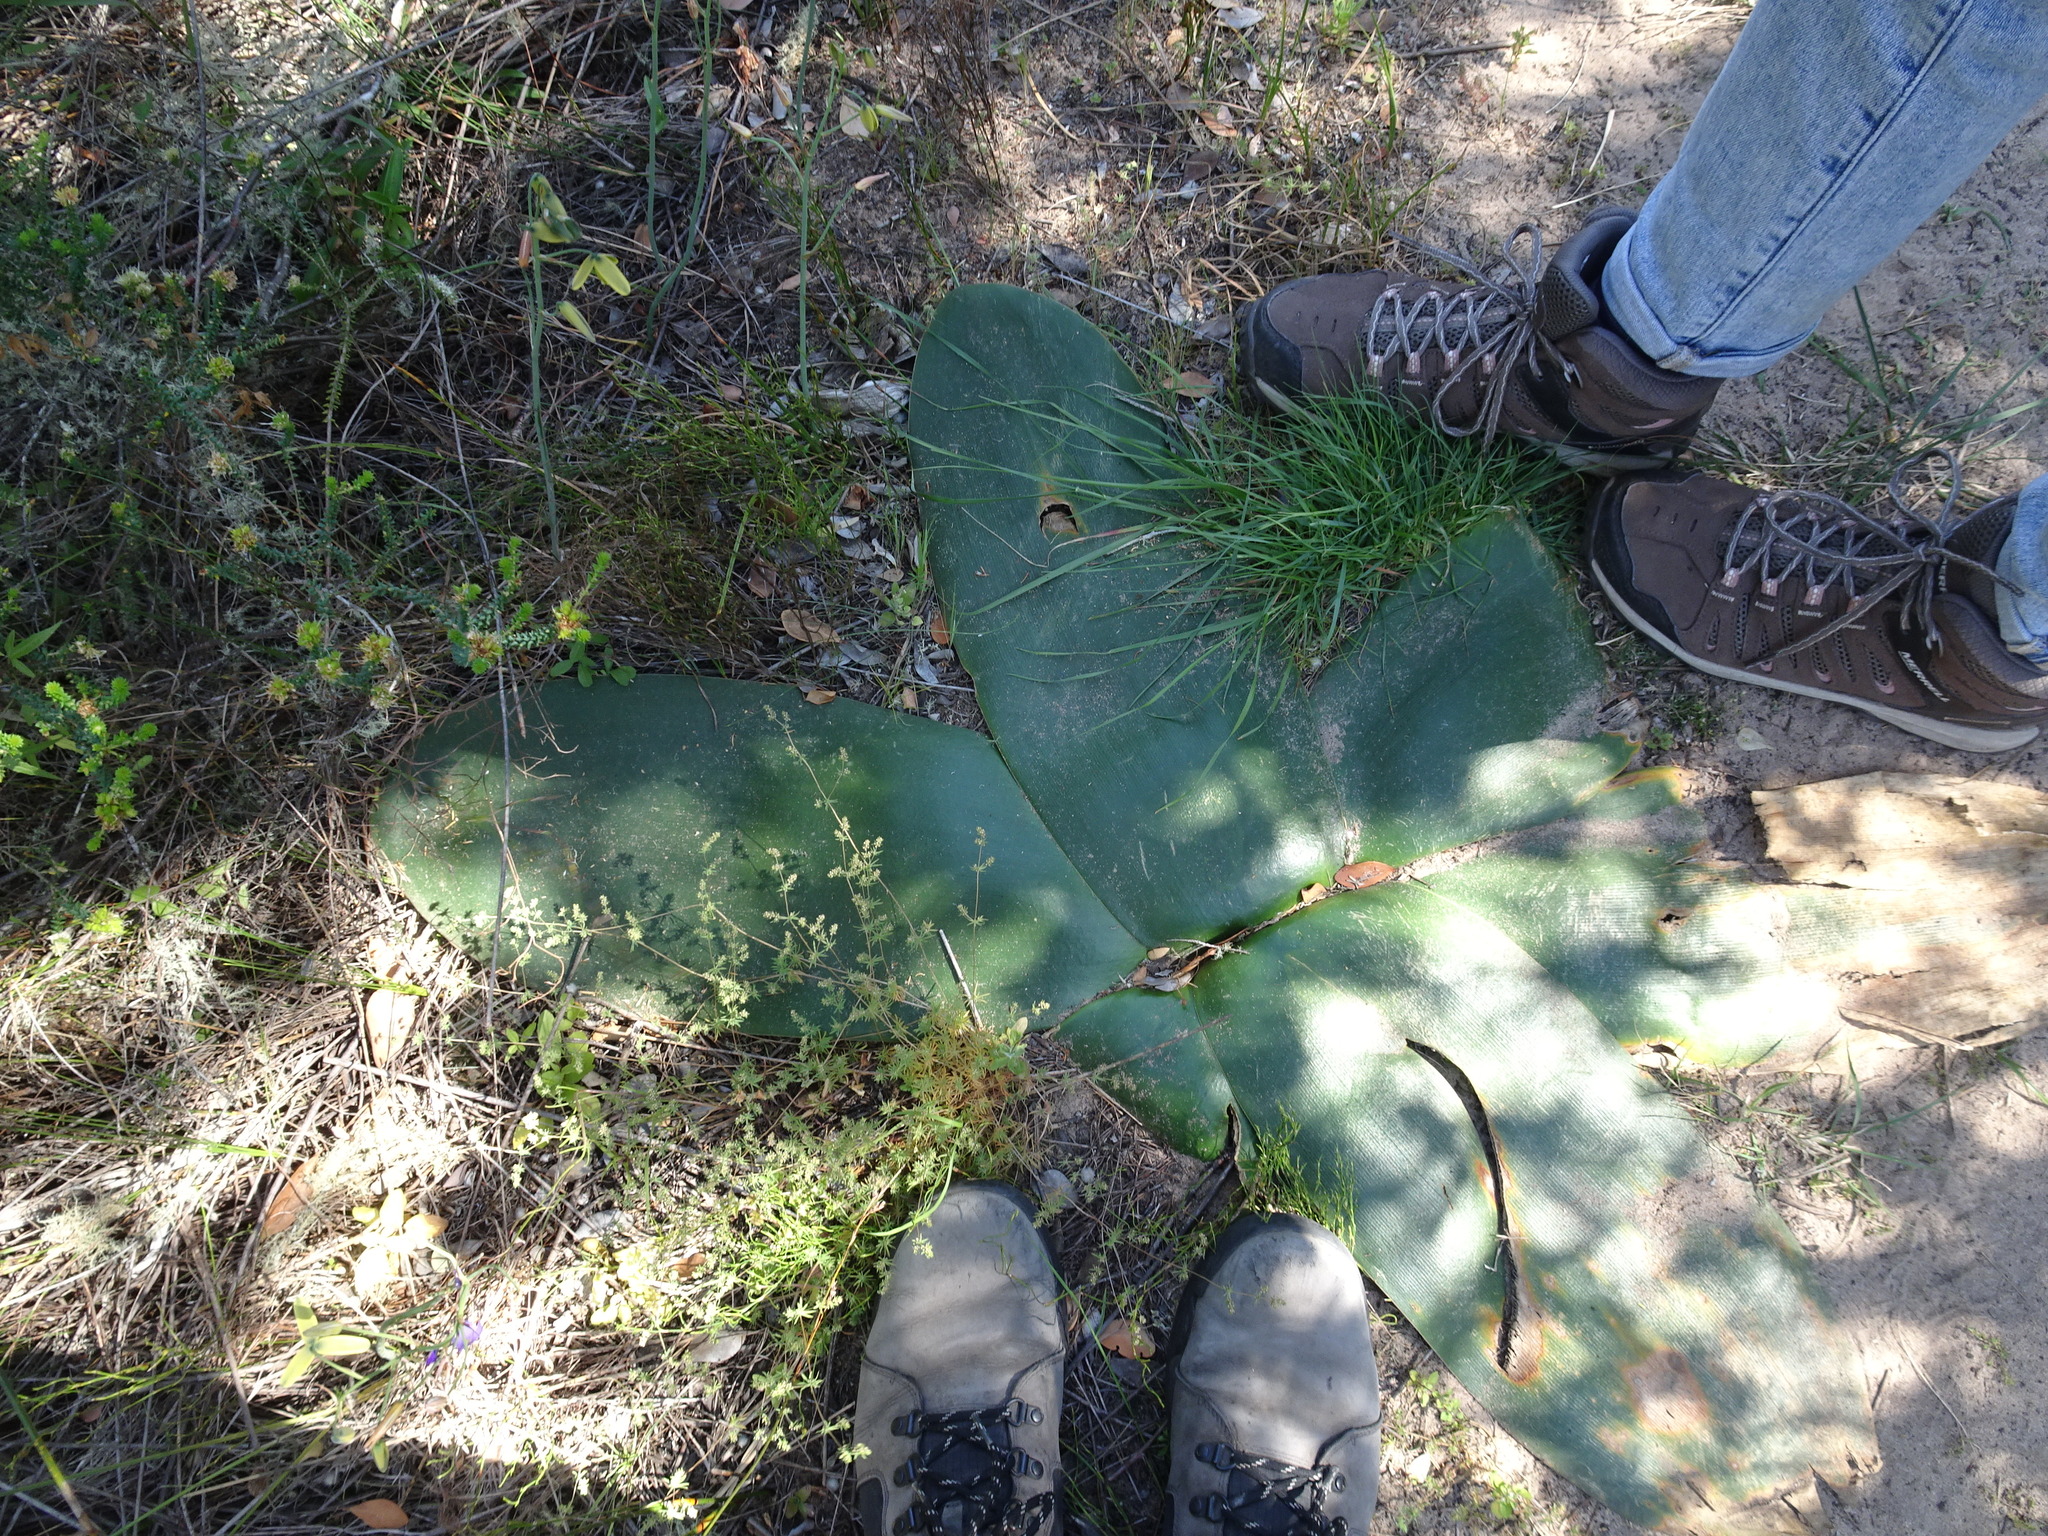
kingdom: Plantae
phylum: Tracheophyta
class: Liliopsida
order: Asparagales
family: Amaryllidaceae
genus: Brunsvigia
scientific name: Brunsvigia orientalis
